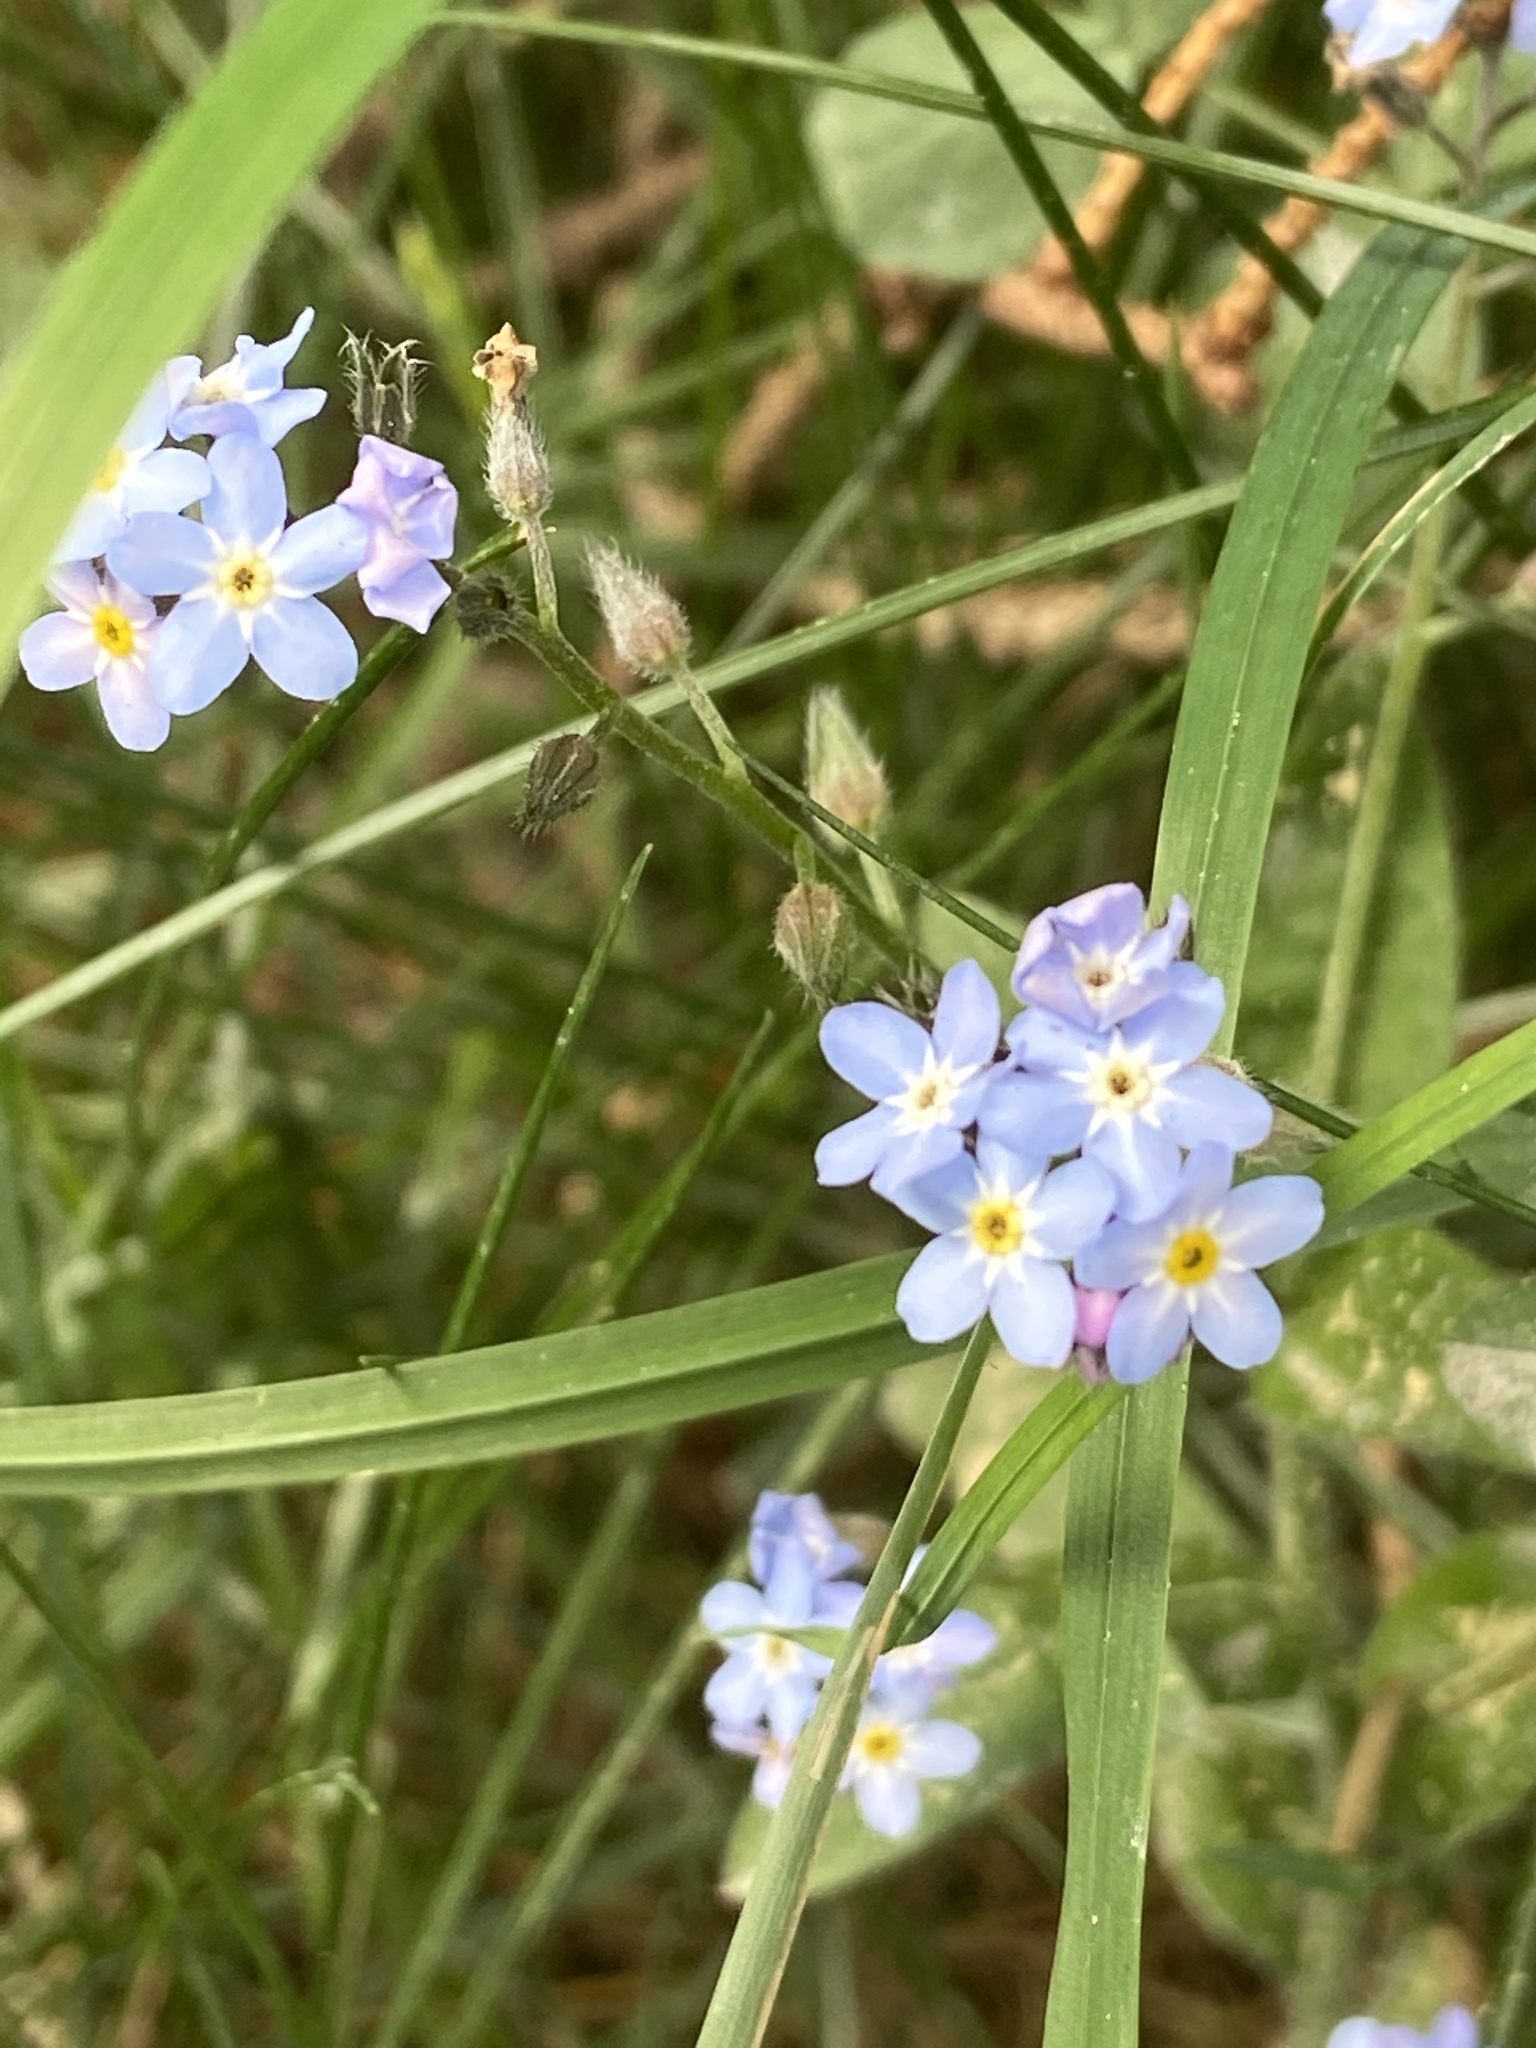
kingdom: Plantae
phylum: Tracheophyta
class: Magnoliopsida
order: Boraginales
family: Boraginaceae
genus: Myosotis
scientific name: Myosotis sylvatica
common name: Wood forget-me-not
